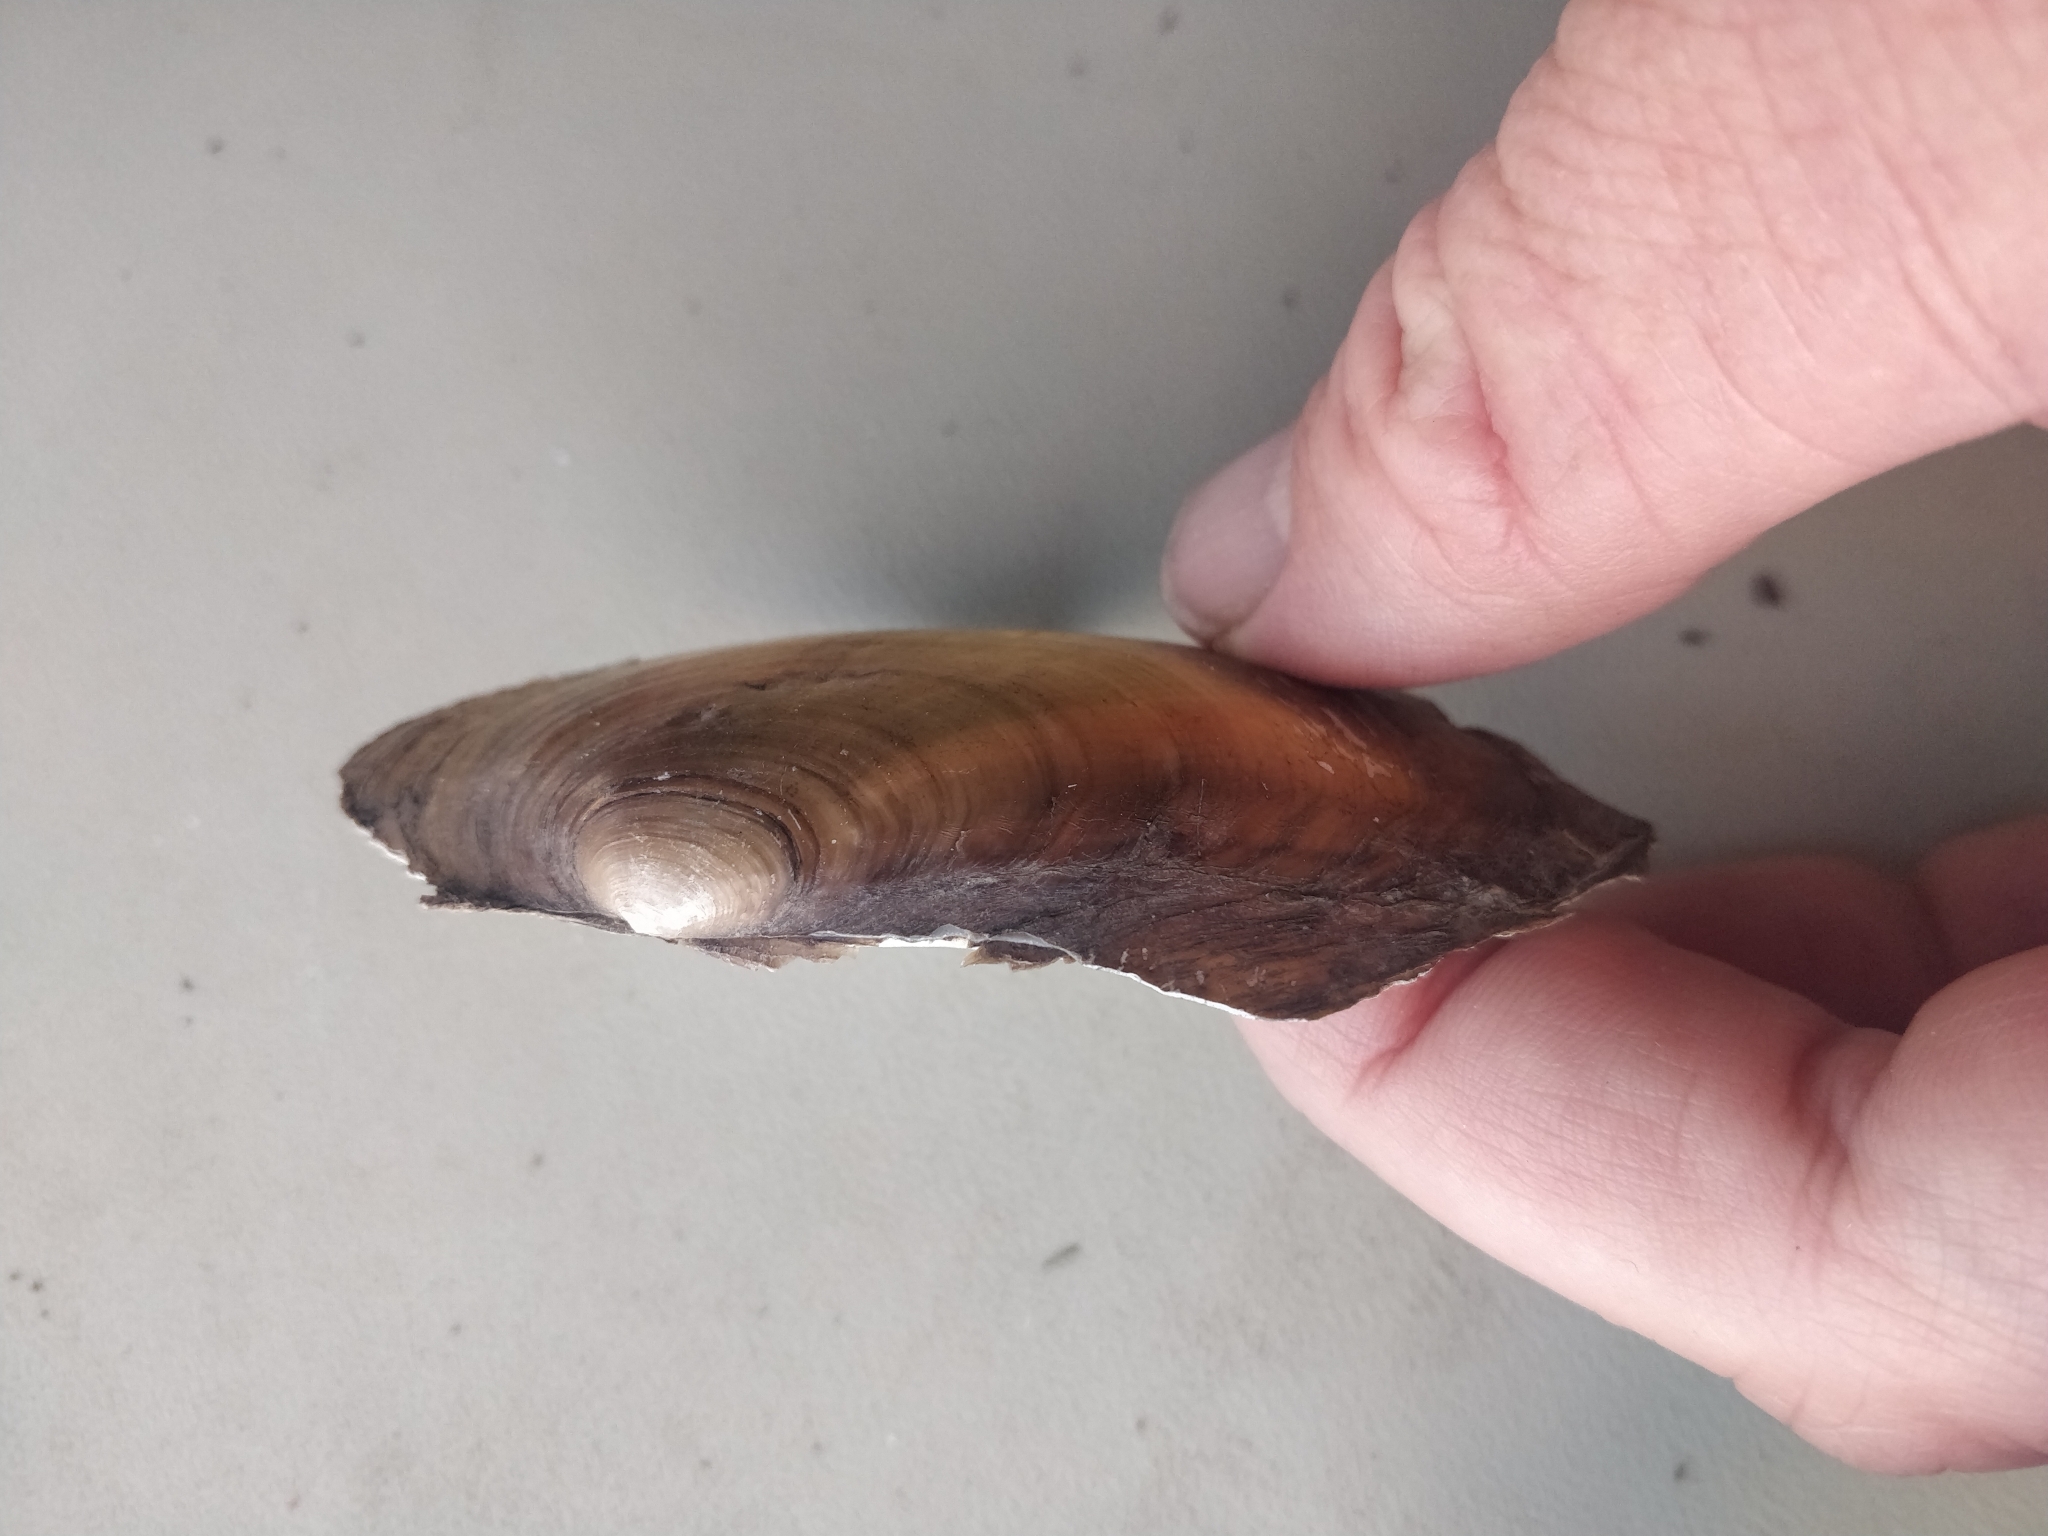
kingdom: Animalia
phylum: Mollusca
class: Bivalvia
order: Unionida
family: Unionidae
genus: Potamilus
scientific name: Potamilus fragilis
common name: Fragile papershell
